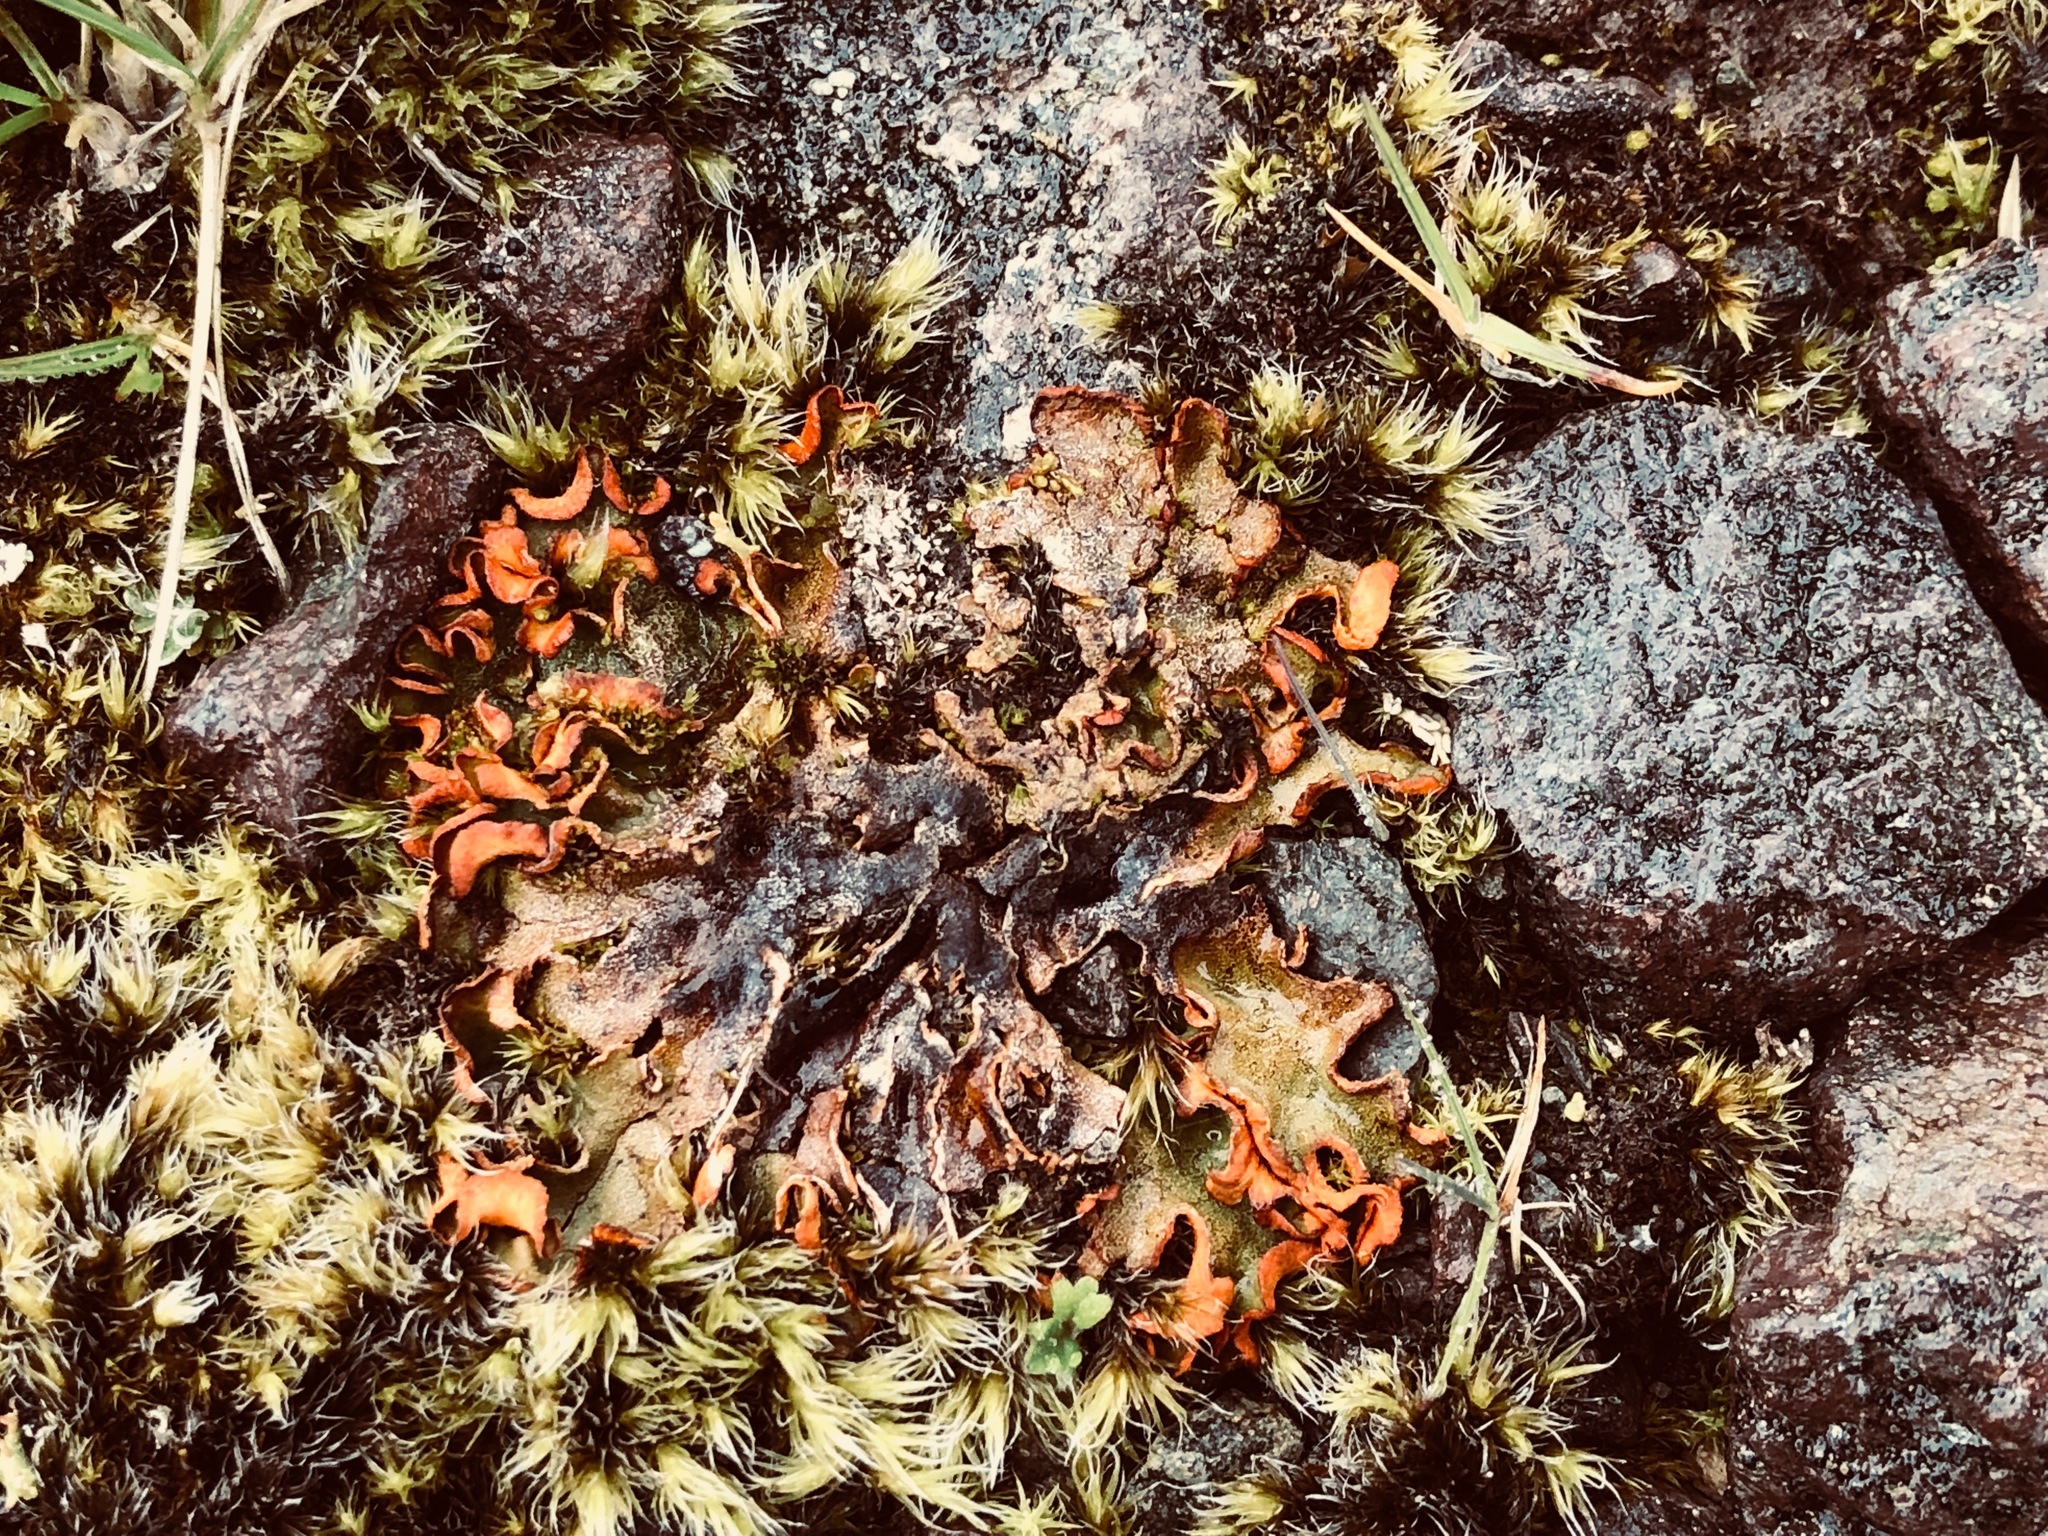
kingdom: Fungi
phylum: Ascomycota
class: Lecanoromycetes
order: Peltigerales
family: Peltigeraceae
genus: Solorina
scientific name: Solorina crocea
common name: Mountain saffron
